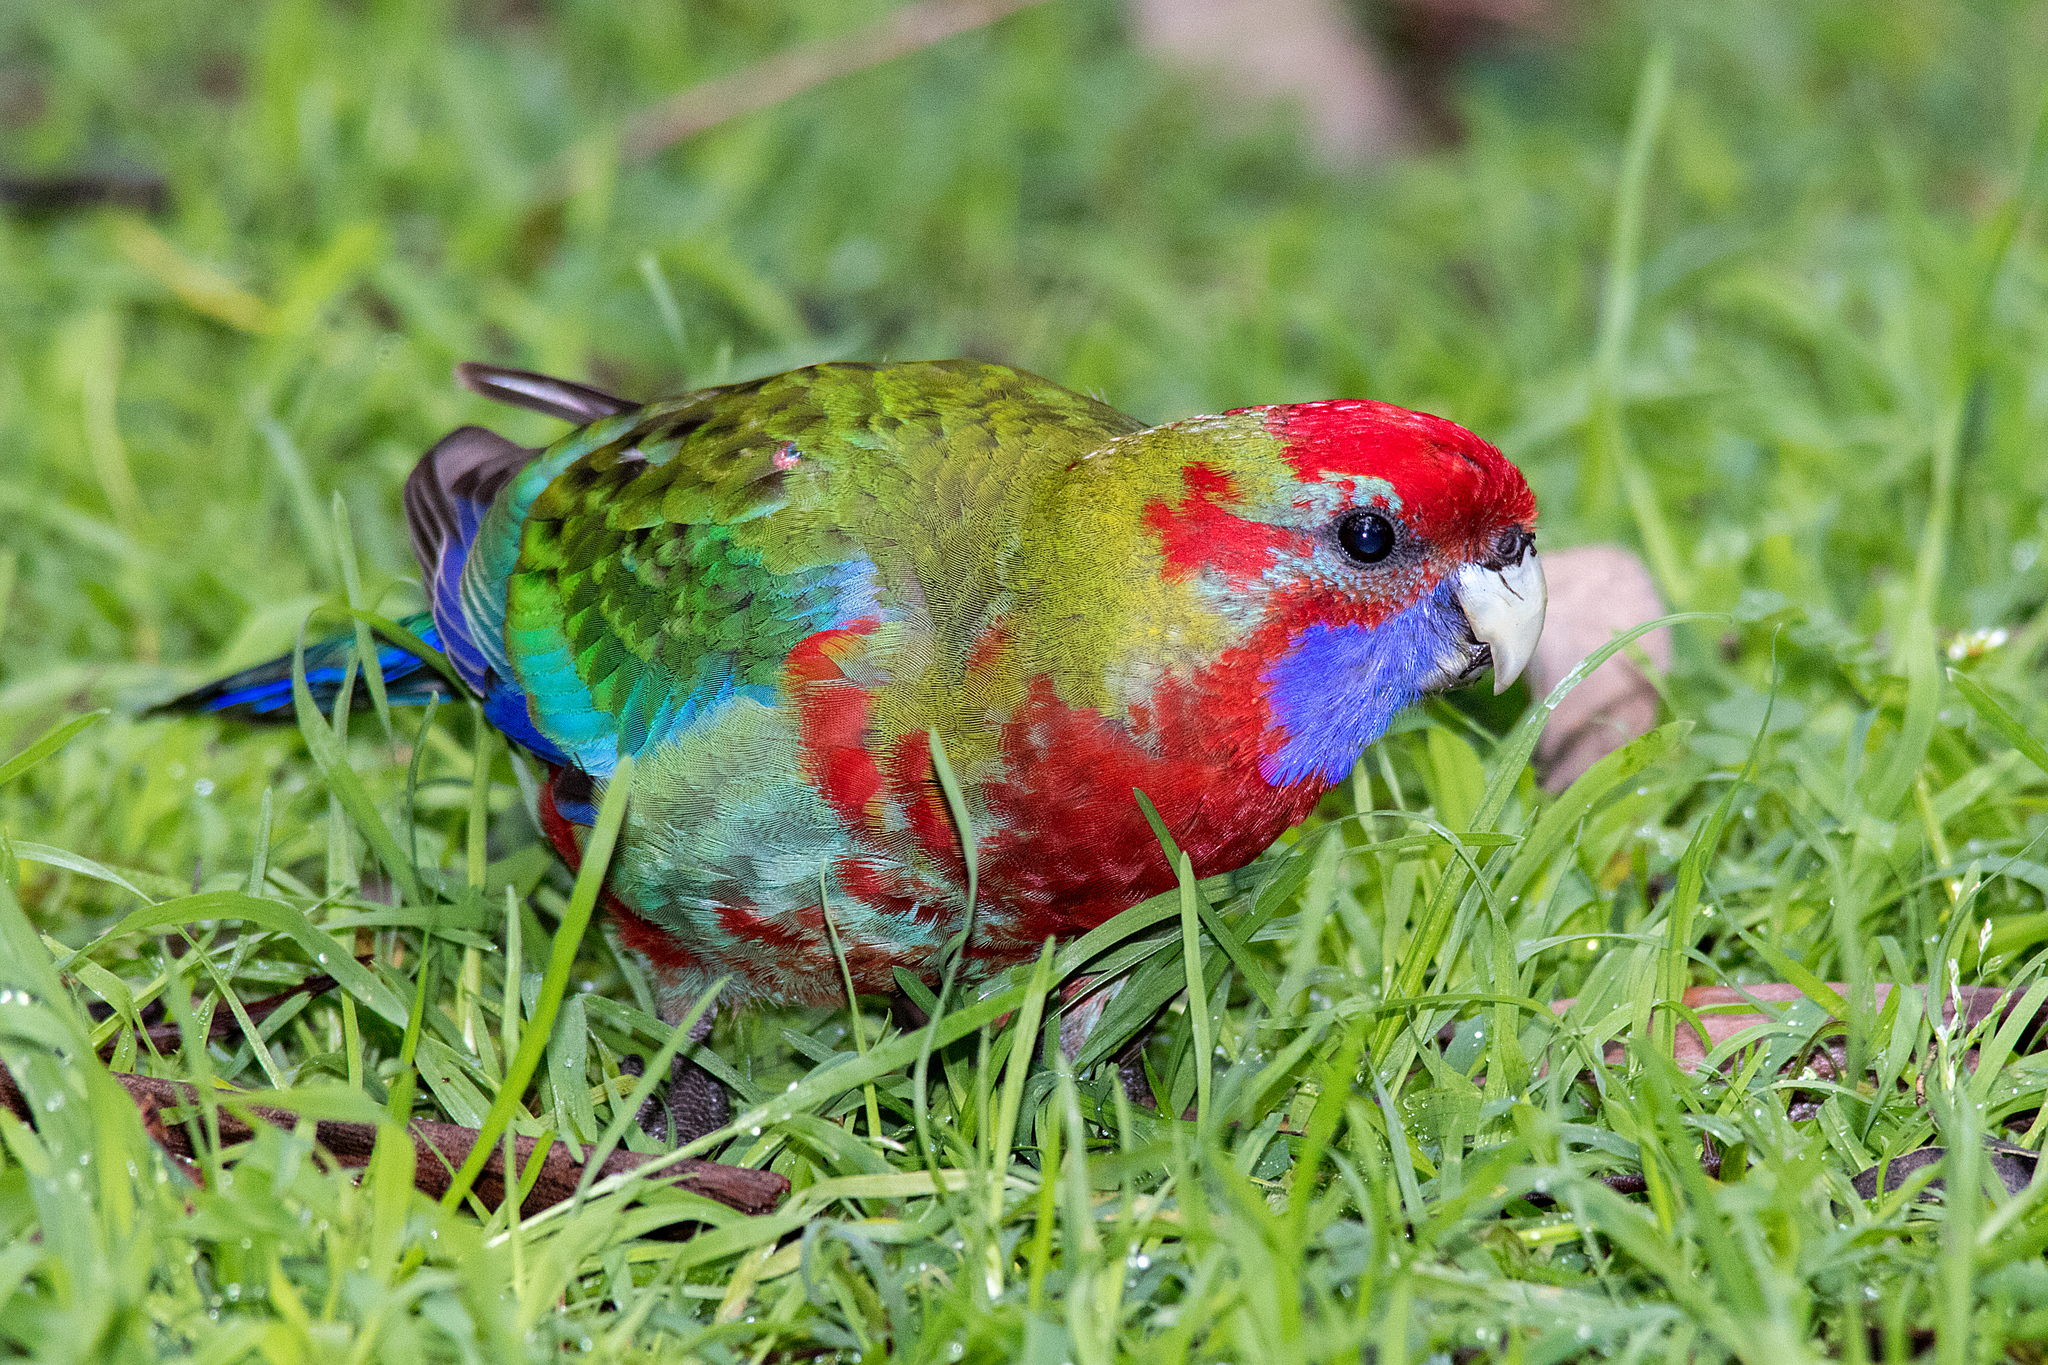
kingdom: Animalia
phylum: Chordata
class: Aves
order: Psittaciformes
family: Psittacidae
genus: Platycercus
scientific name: Platycercus elegans
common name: Crimson rosella
